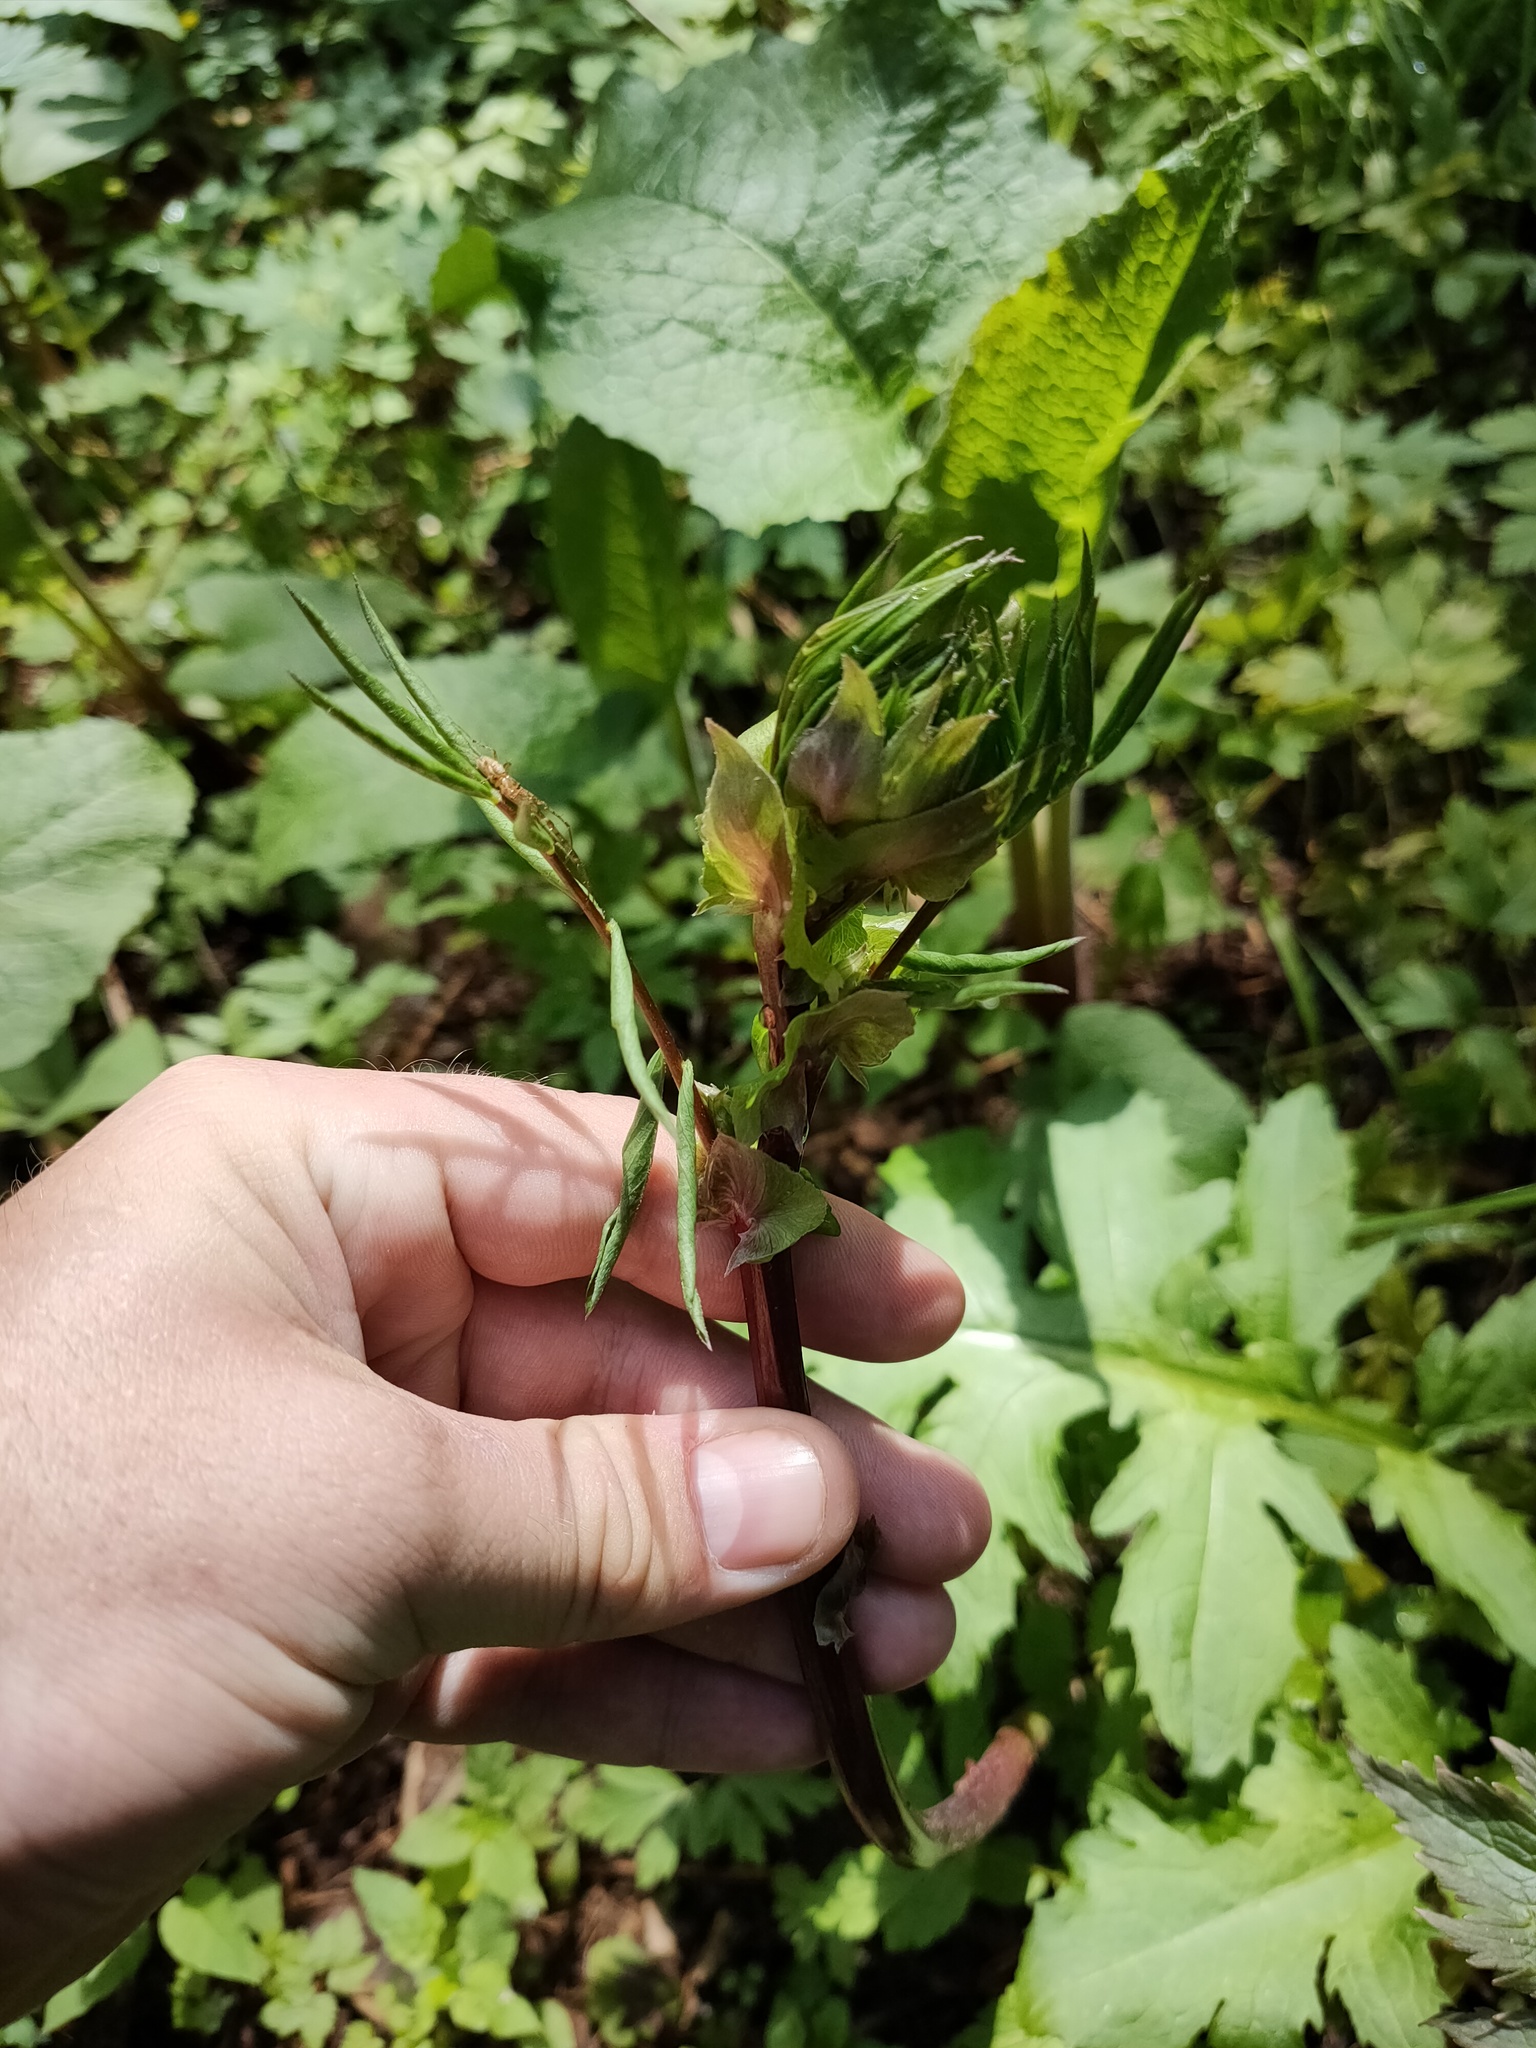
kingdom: Plantae
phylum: Tracheophyta
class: Magnoliopsida
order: Fabales
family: Fabaceae
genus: Lathyrus
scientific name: Lathyrus vernus
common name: Spring pea
